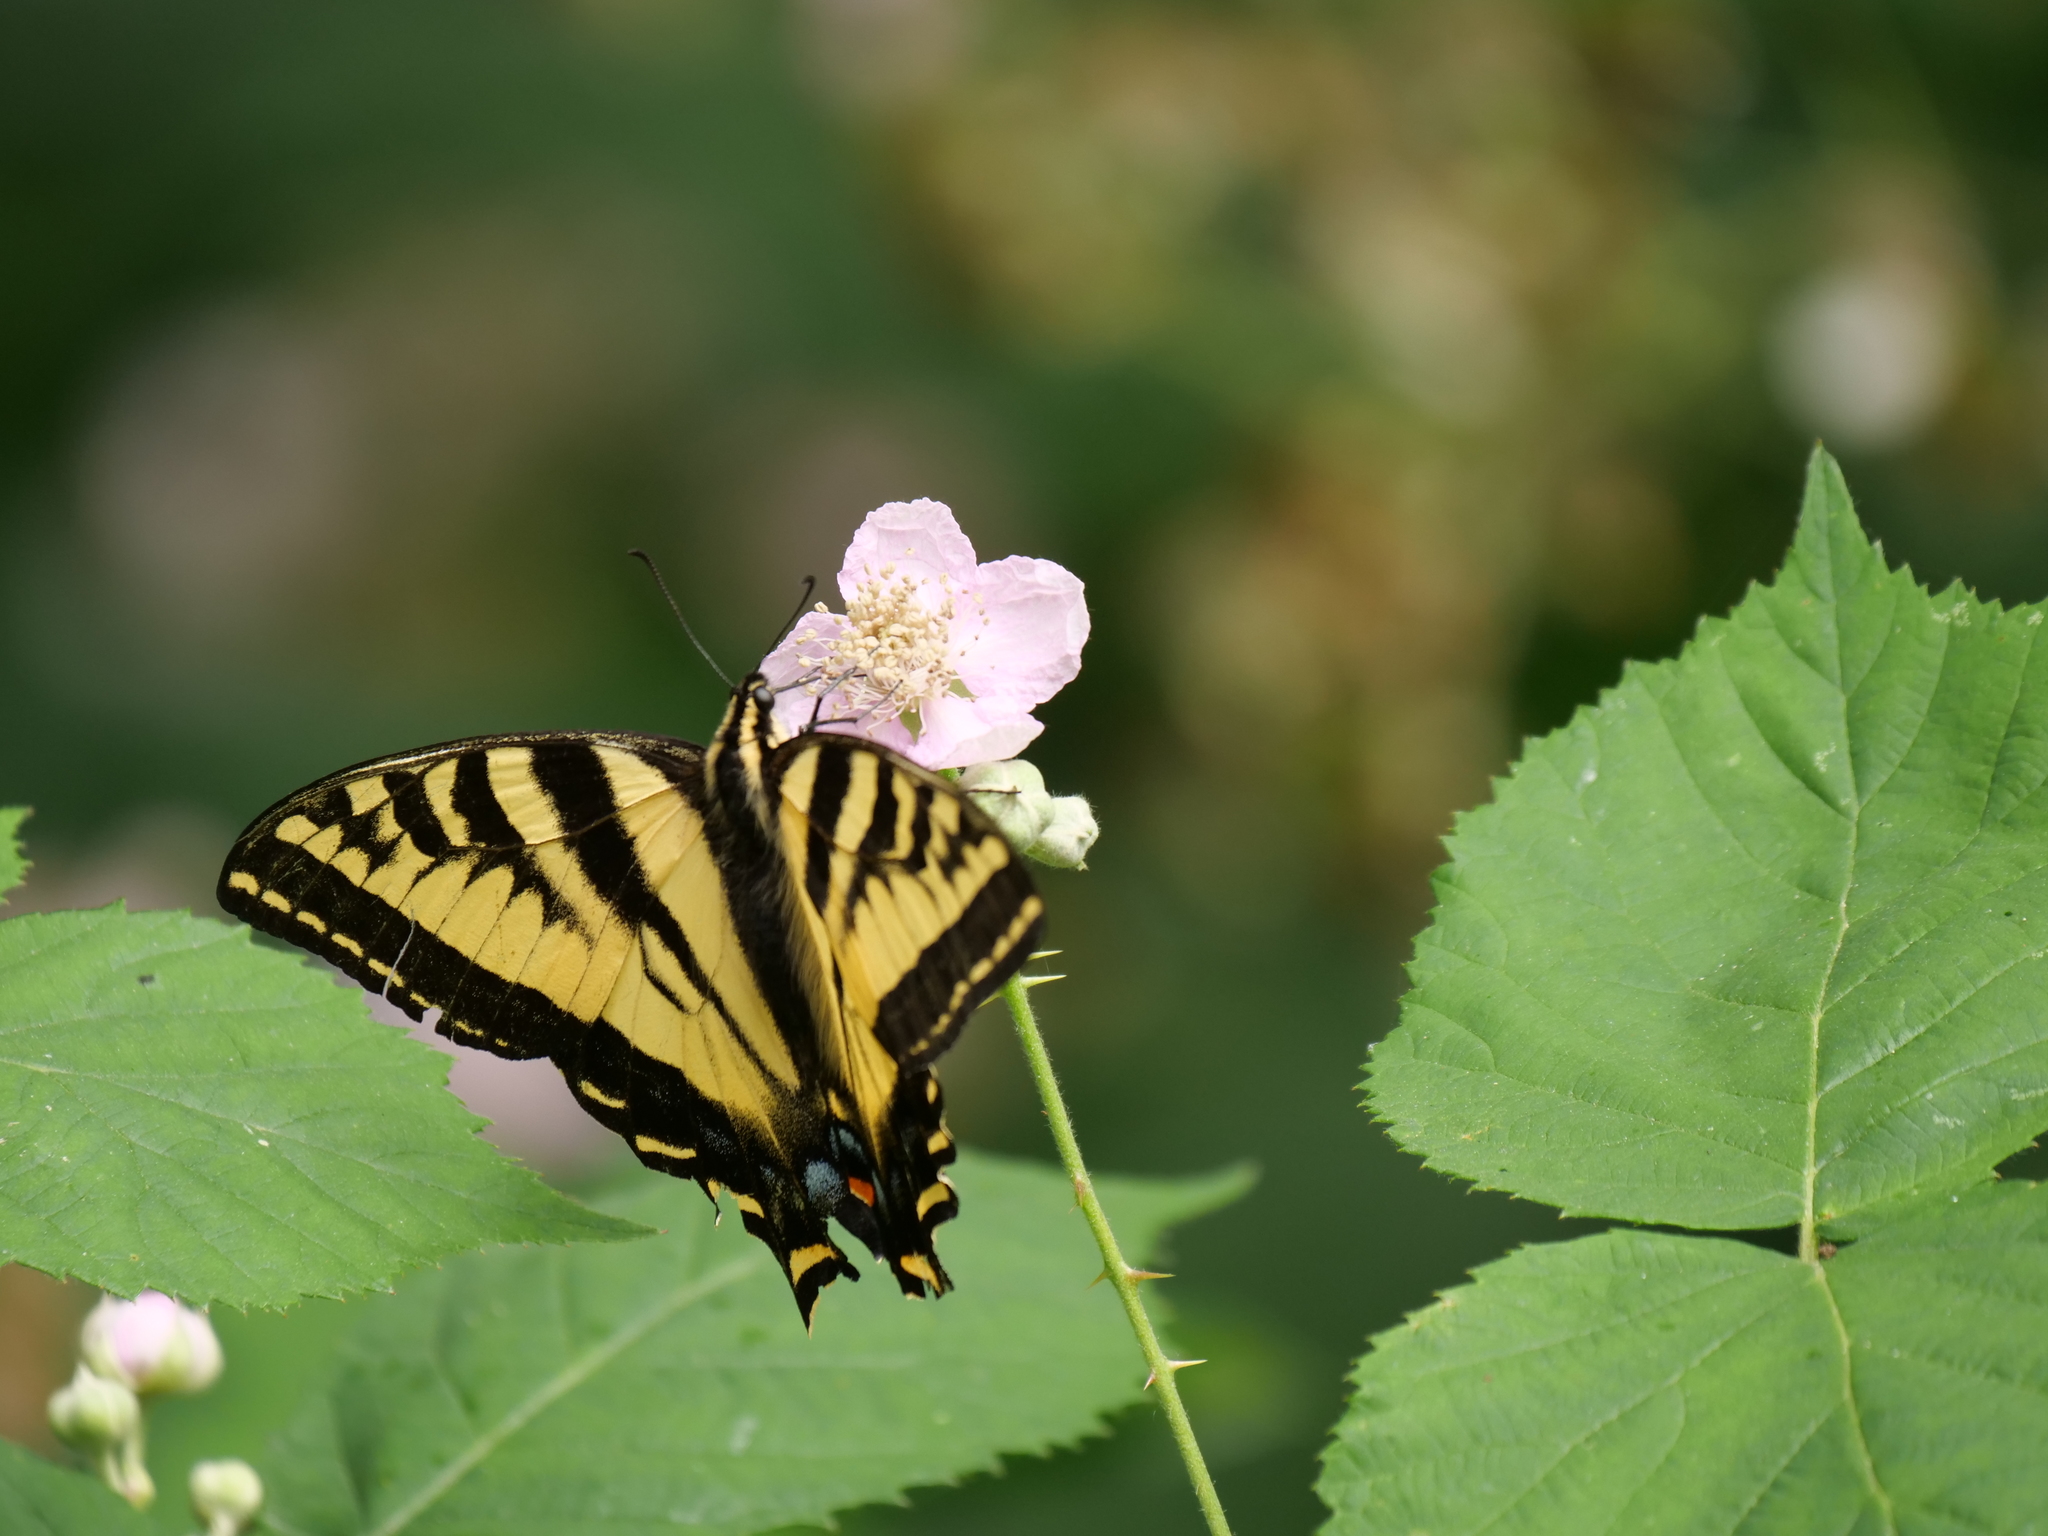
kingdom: Animalia
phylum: Arthropoda
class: Insecta
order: Lepidoptera
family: Papilionidae
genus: Papilio
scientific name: Papilio rutulus
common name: Western tiger swallowtail
